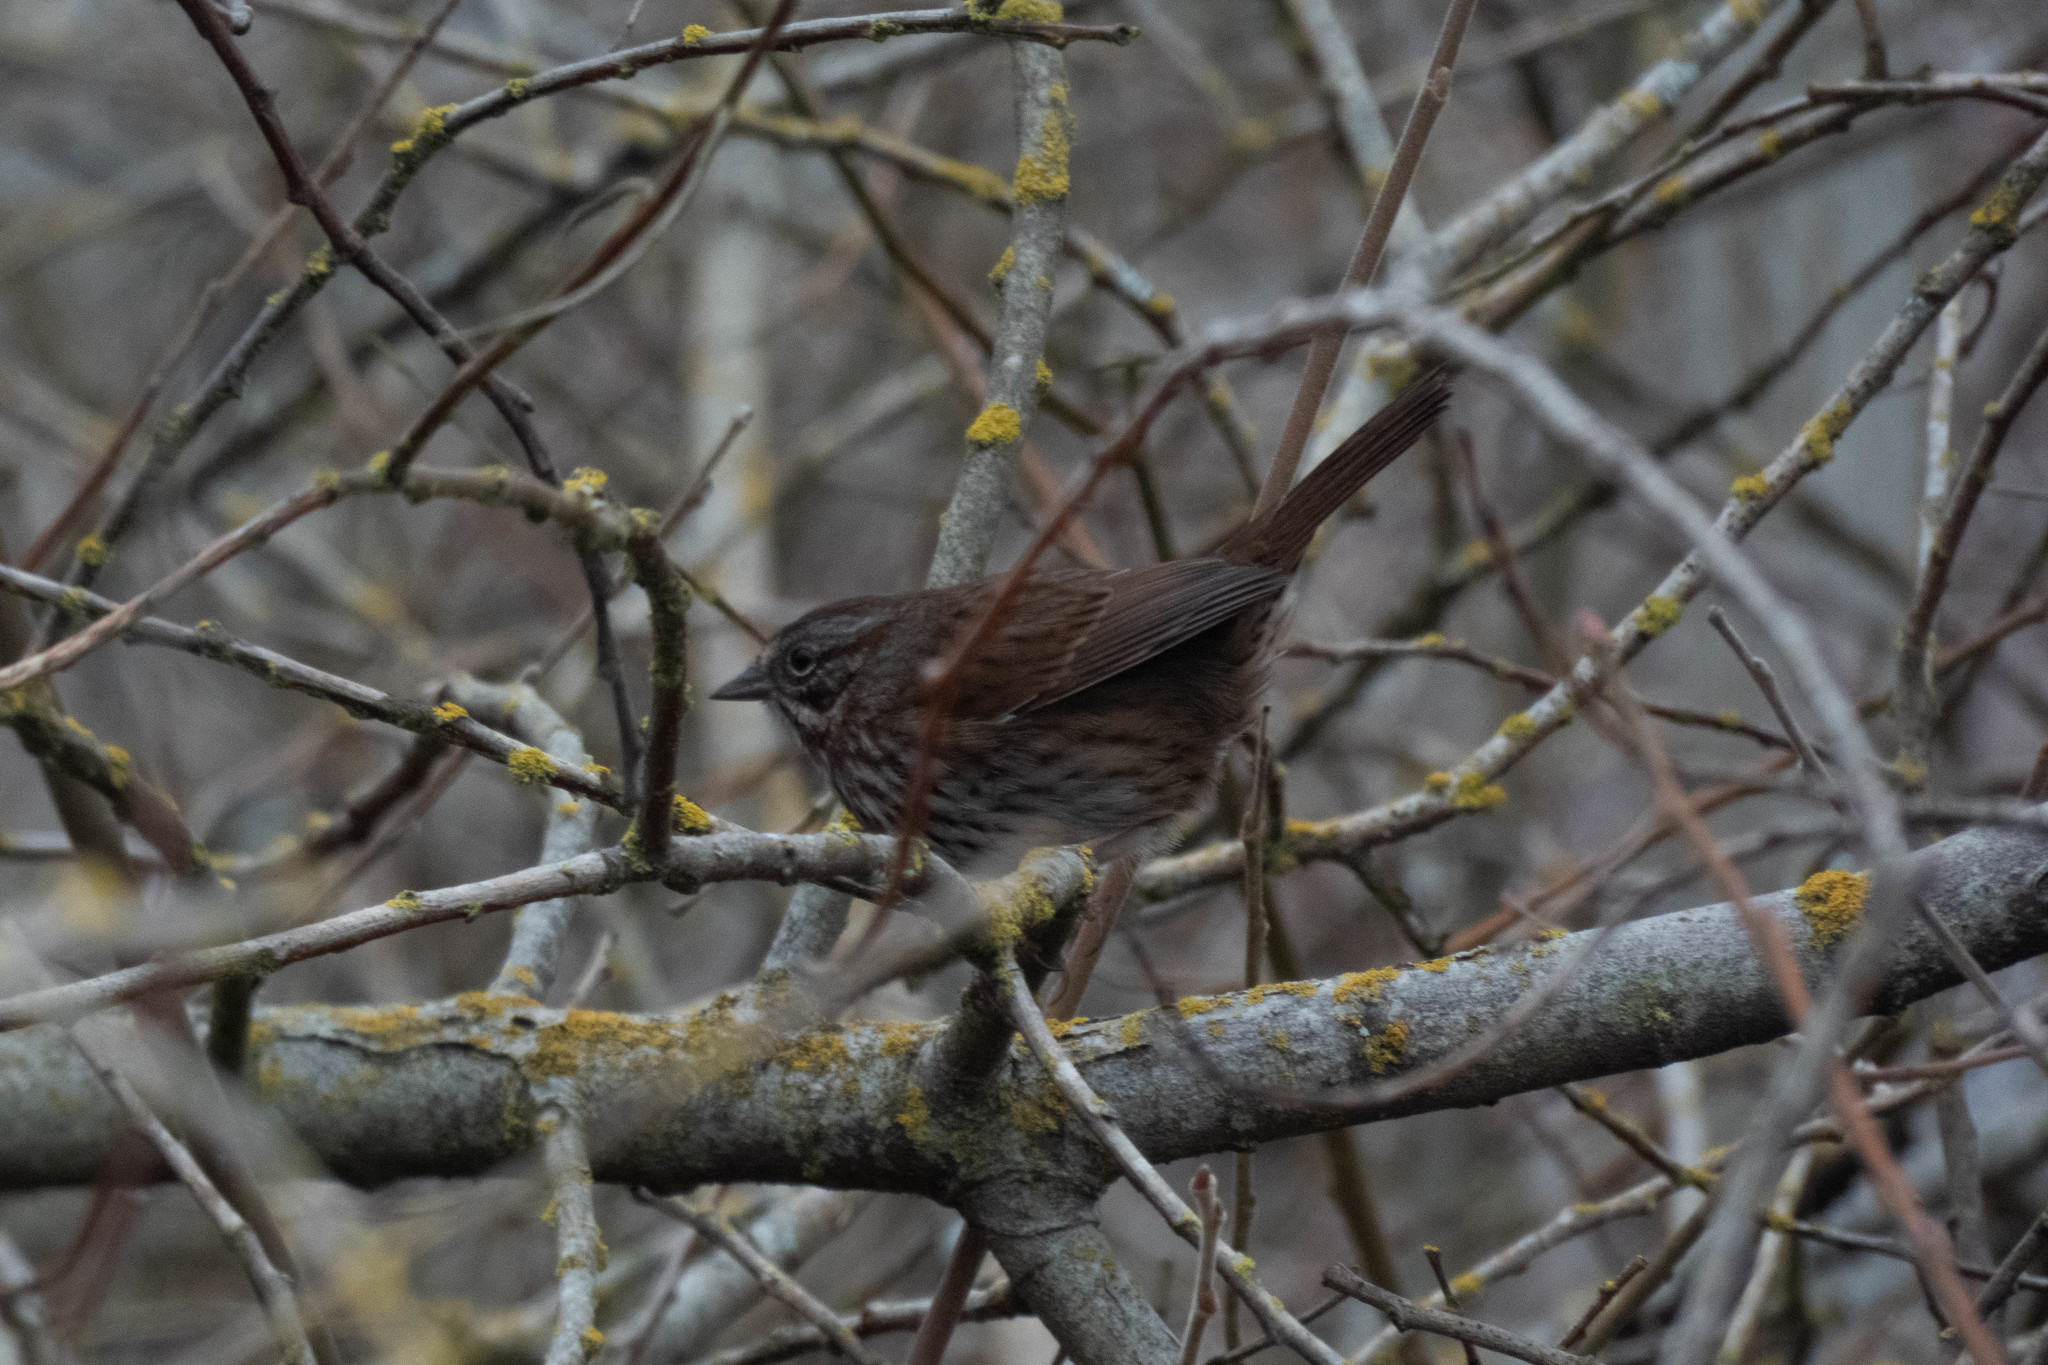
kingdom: Animalia
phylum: Chordata
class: Aves
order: Passeriformes
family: Passerellidae
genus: Melospiza
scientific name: Melospiza melodia
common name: Song sparrow
